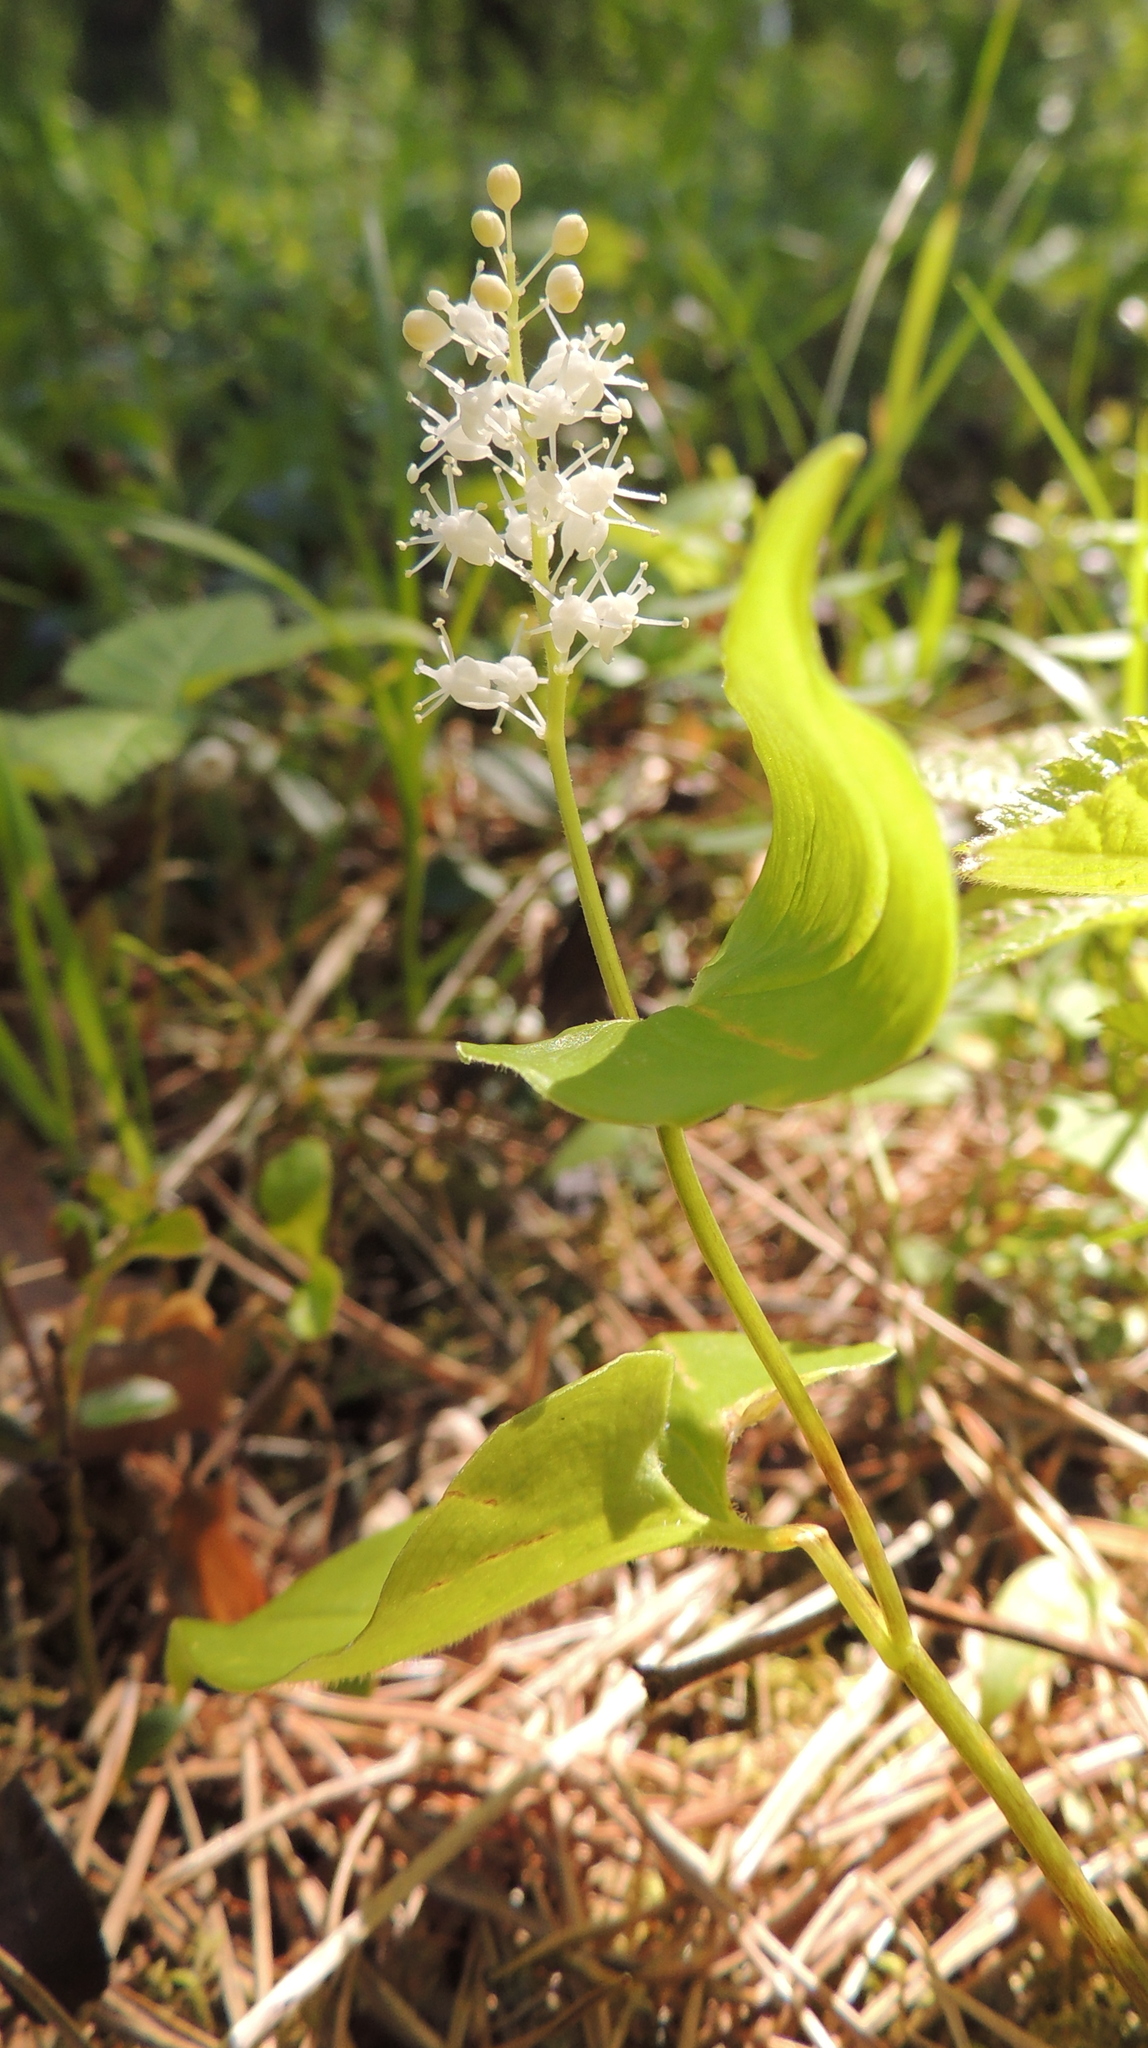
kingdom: Plantae
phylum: Tracheophyta
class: Liliopsida
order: Asparagales
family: Asparagaceae
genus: Maianthemum
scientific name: Maianthemum bifolium
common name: May lily
